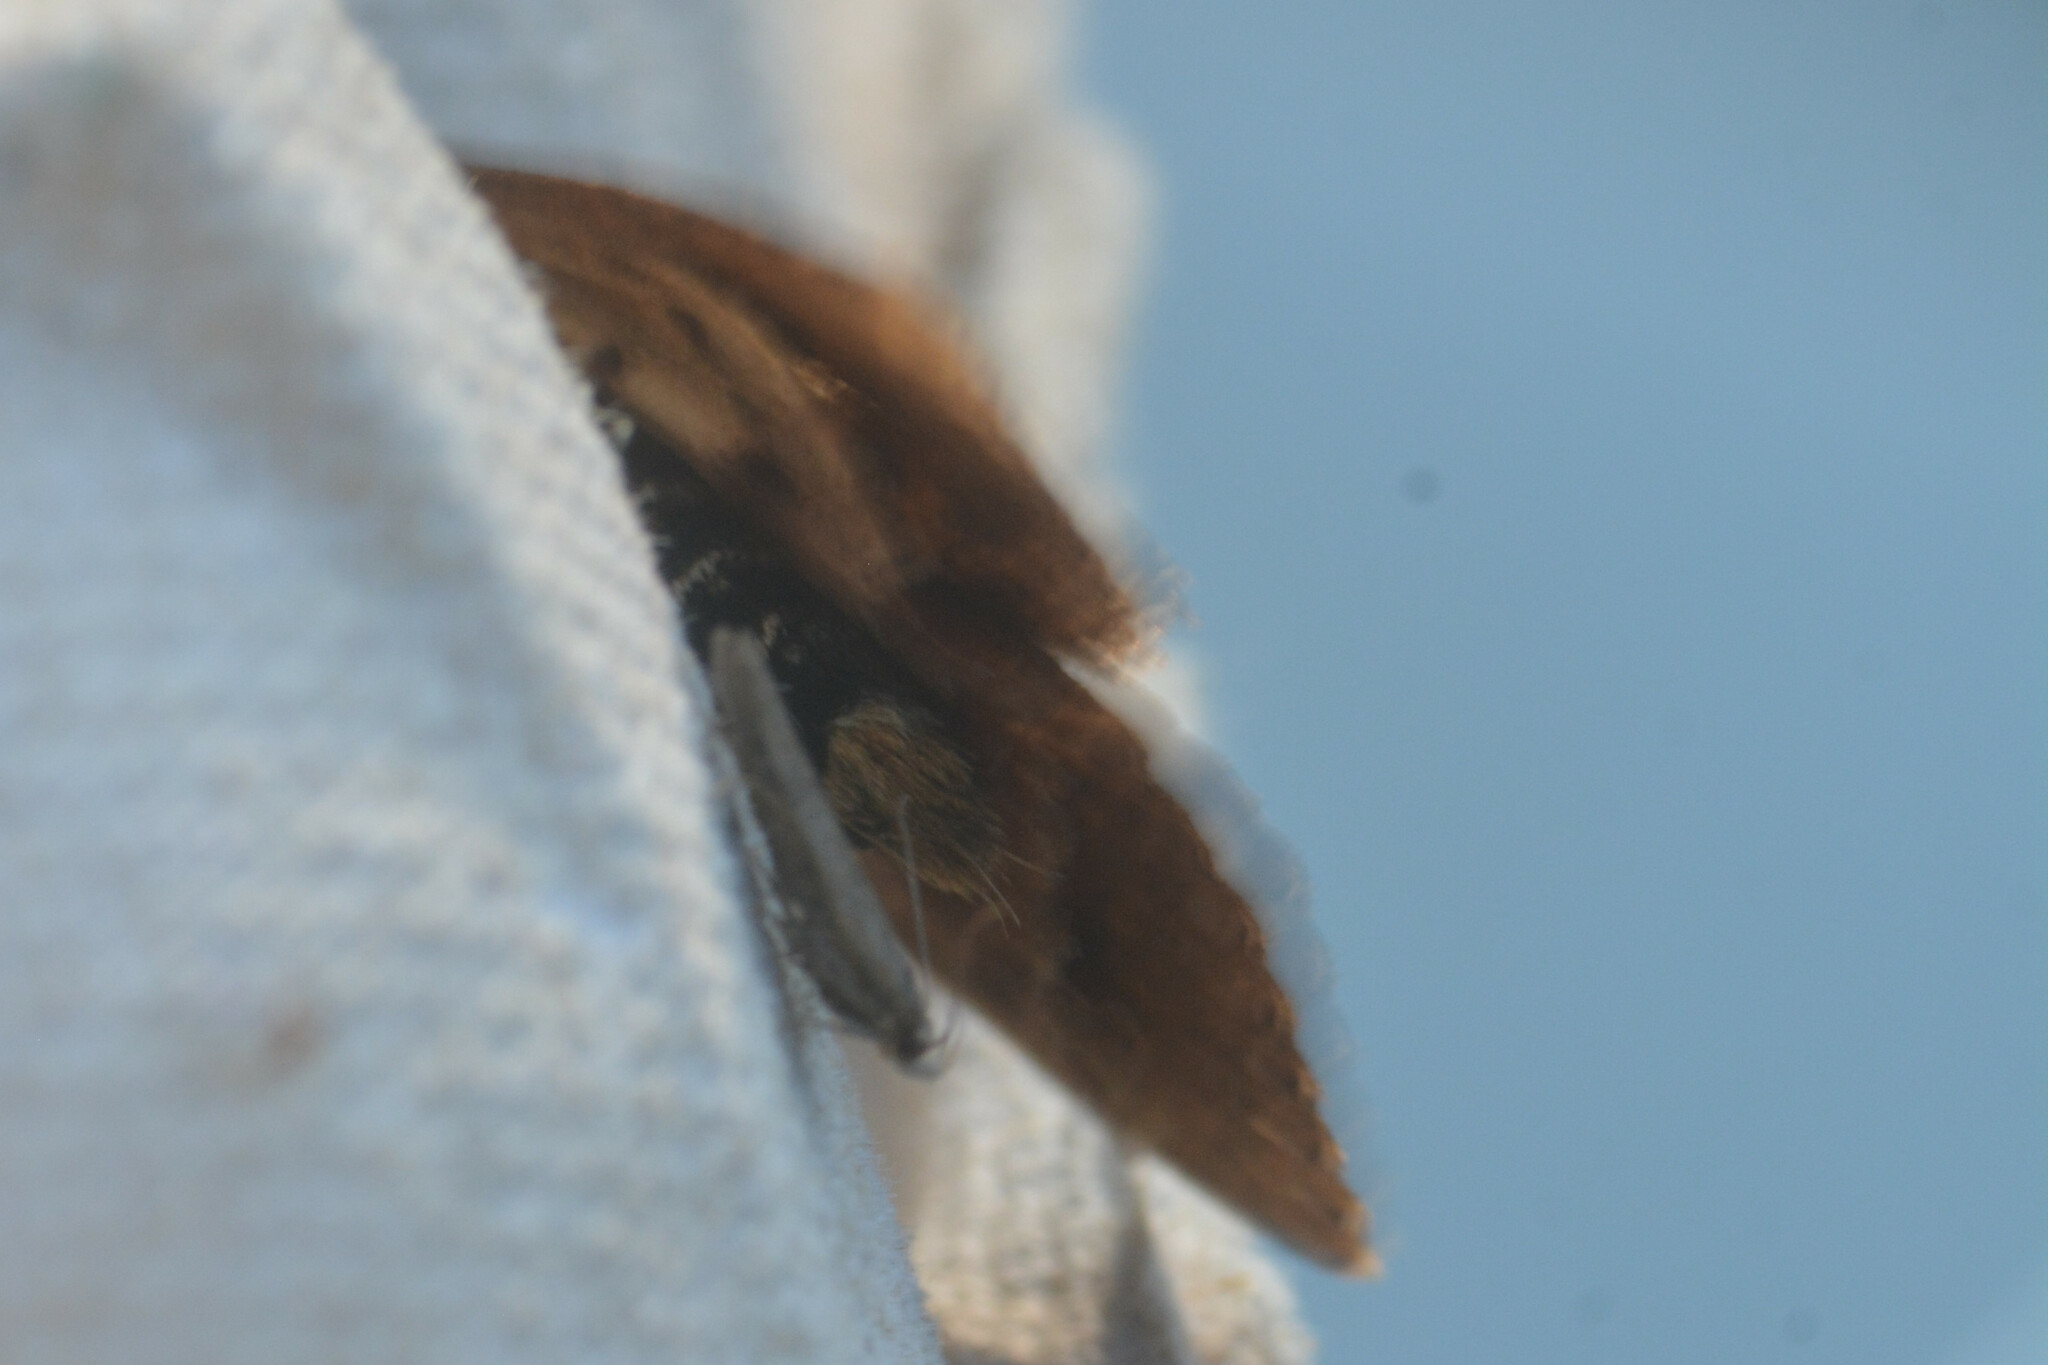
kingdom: Animalia
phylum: Arthropoda
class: Insecta
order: Lepidoptera
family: Noctuidae
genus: Amphipyra
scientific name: Amphipyra pyramidea
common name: Copper underwing
